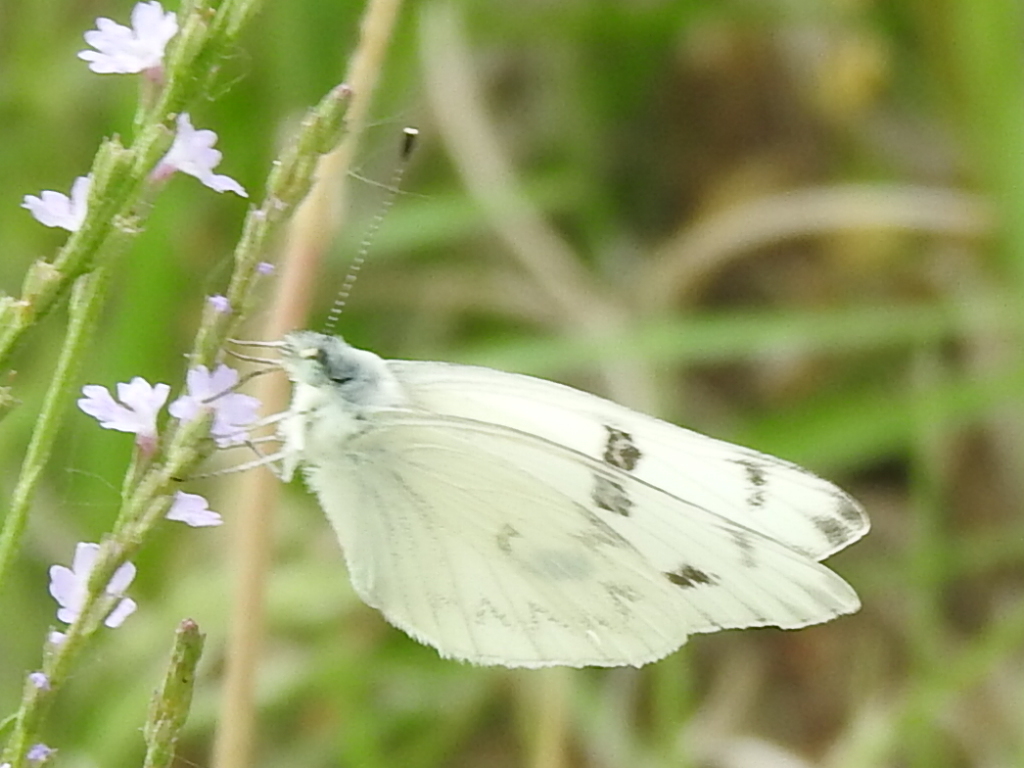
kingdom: Animalia
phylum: Arthropoda
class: Insecta
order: Lepidoptera
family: Pieridae
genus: Pontia
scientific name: Pontia protodice
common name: Checkered white
